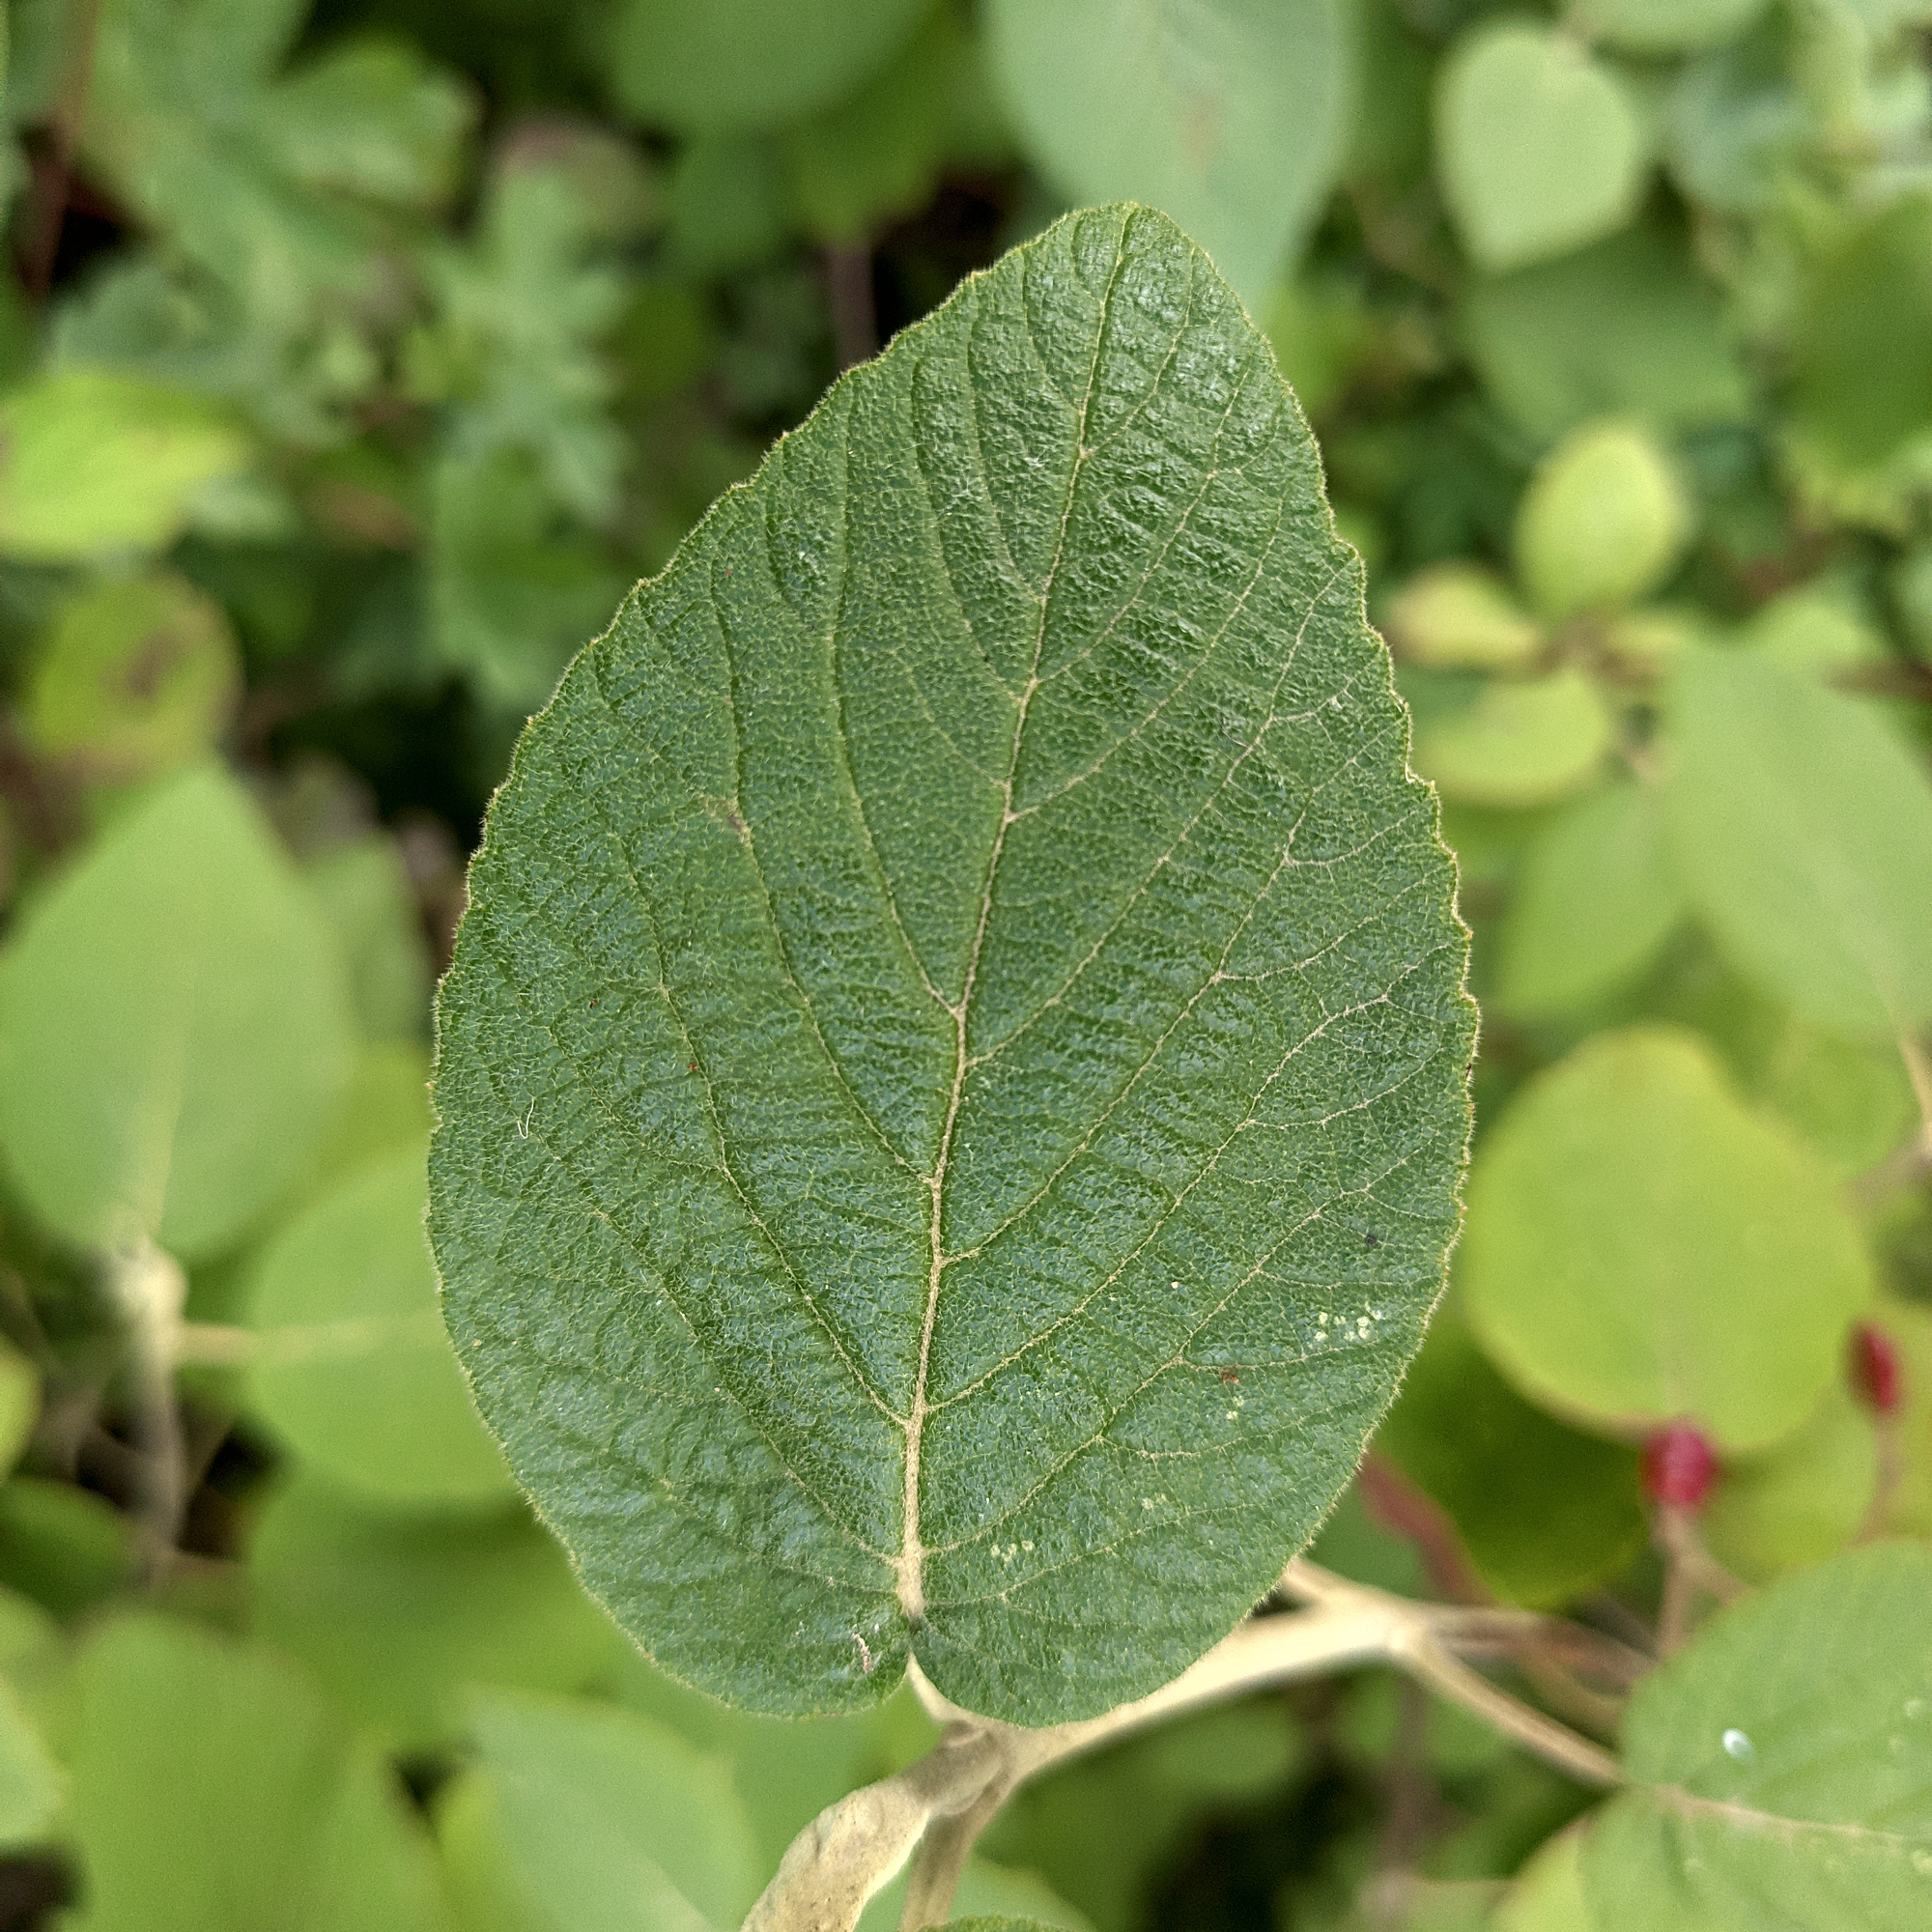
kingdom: Plantae
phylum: Tracheophyta
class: Magnoliopsida
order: Dipsacales
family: Viburnaceae
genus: Viburnum
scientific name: Viburnum lantana
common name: Wayfaring tree
